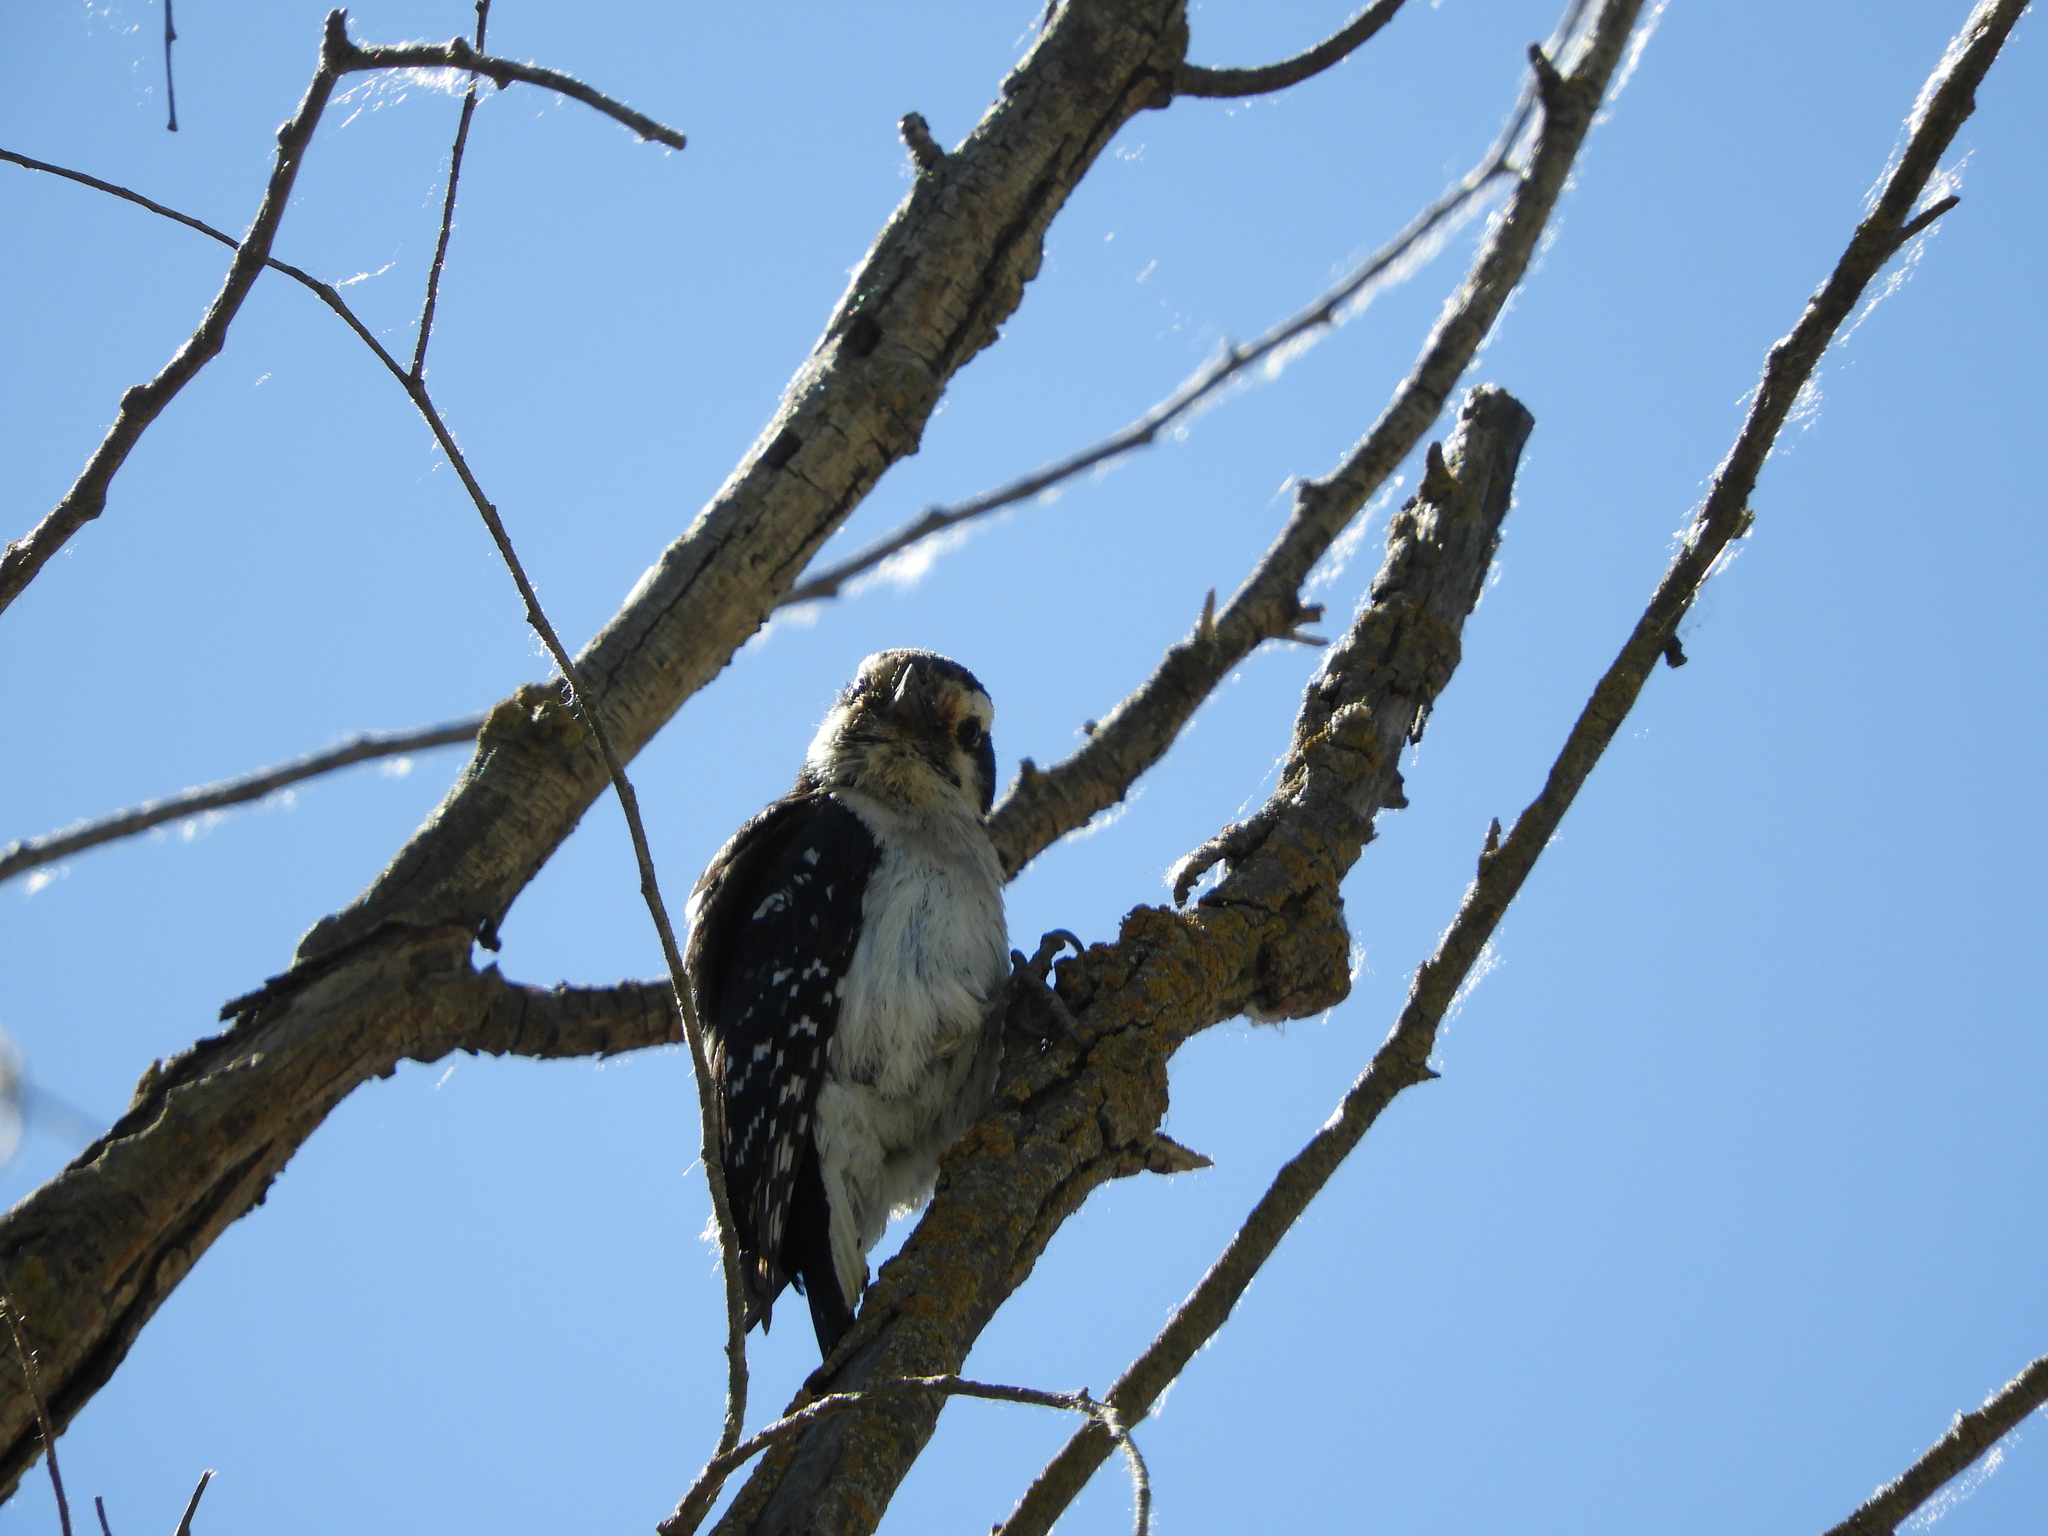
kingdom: Animalia
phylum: Chordata
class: Aves
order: Piciformes
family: Picidae
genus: Dryobates
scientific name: Dryobates pubescens
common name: Downy woodpecker
